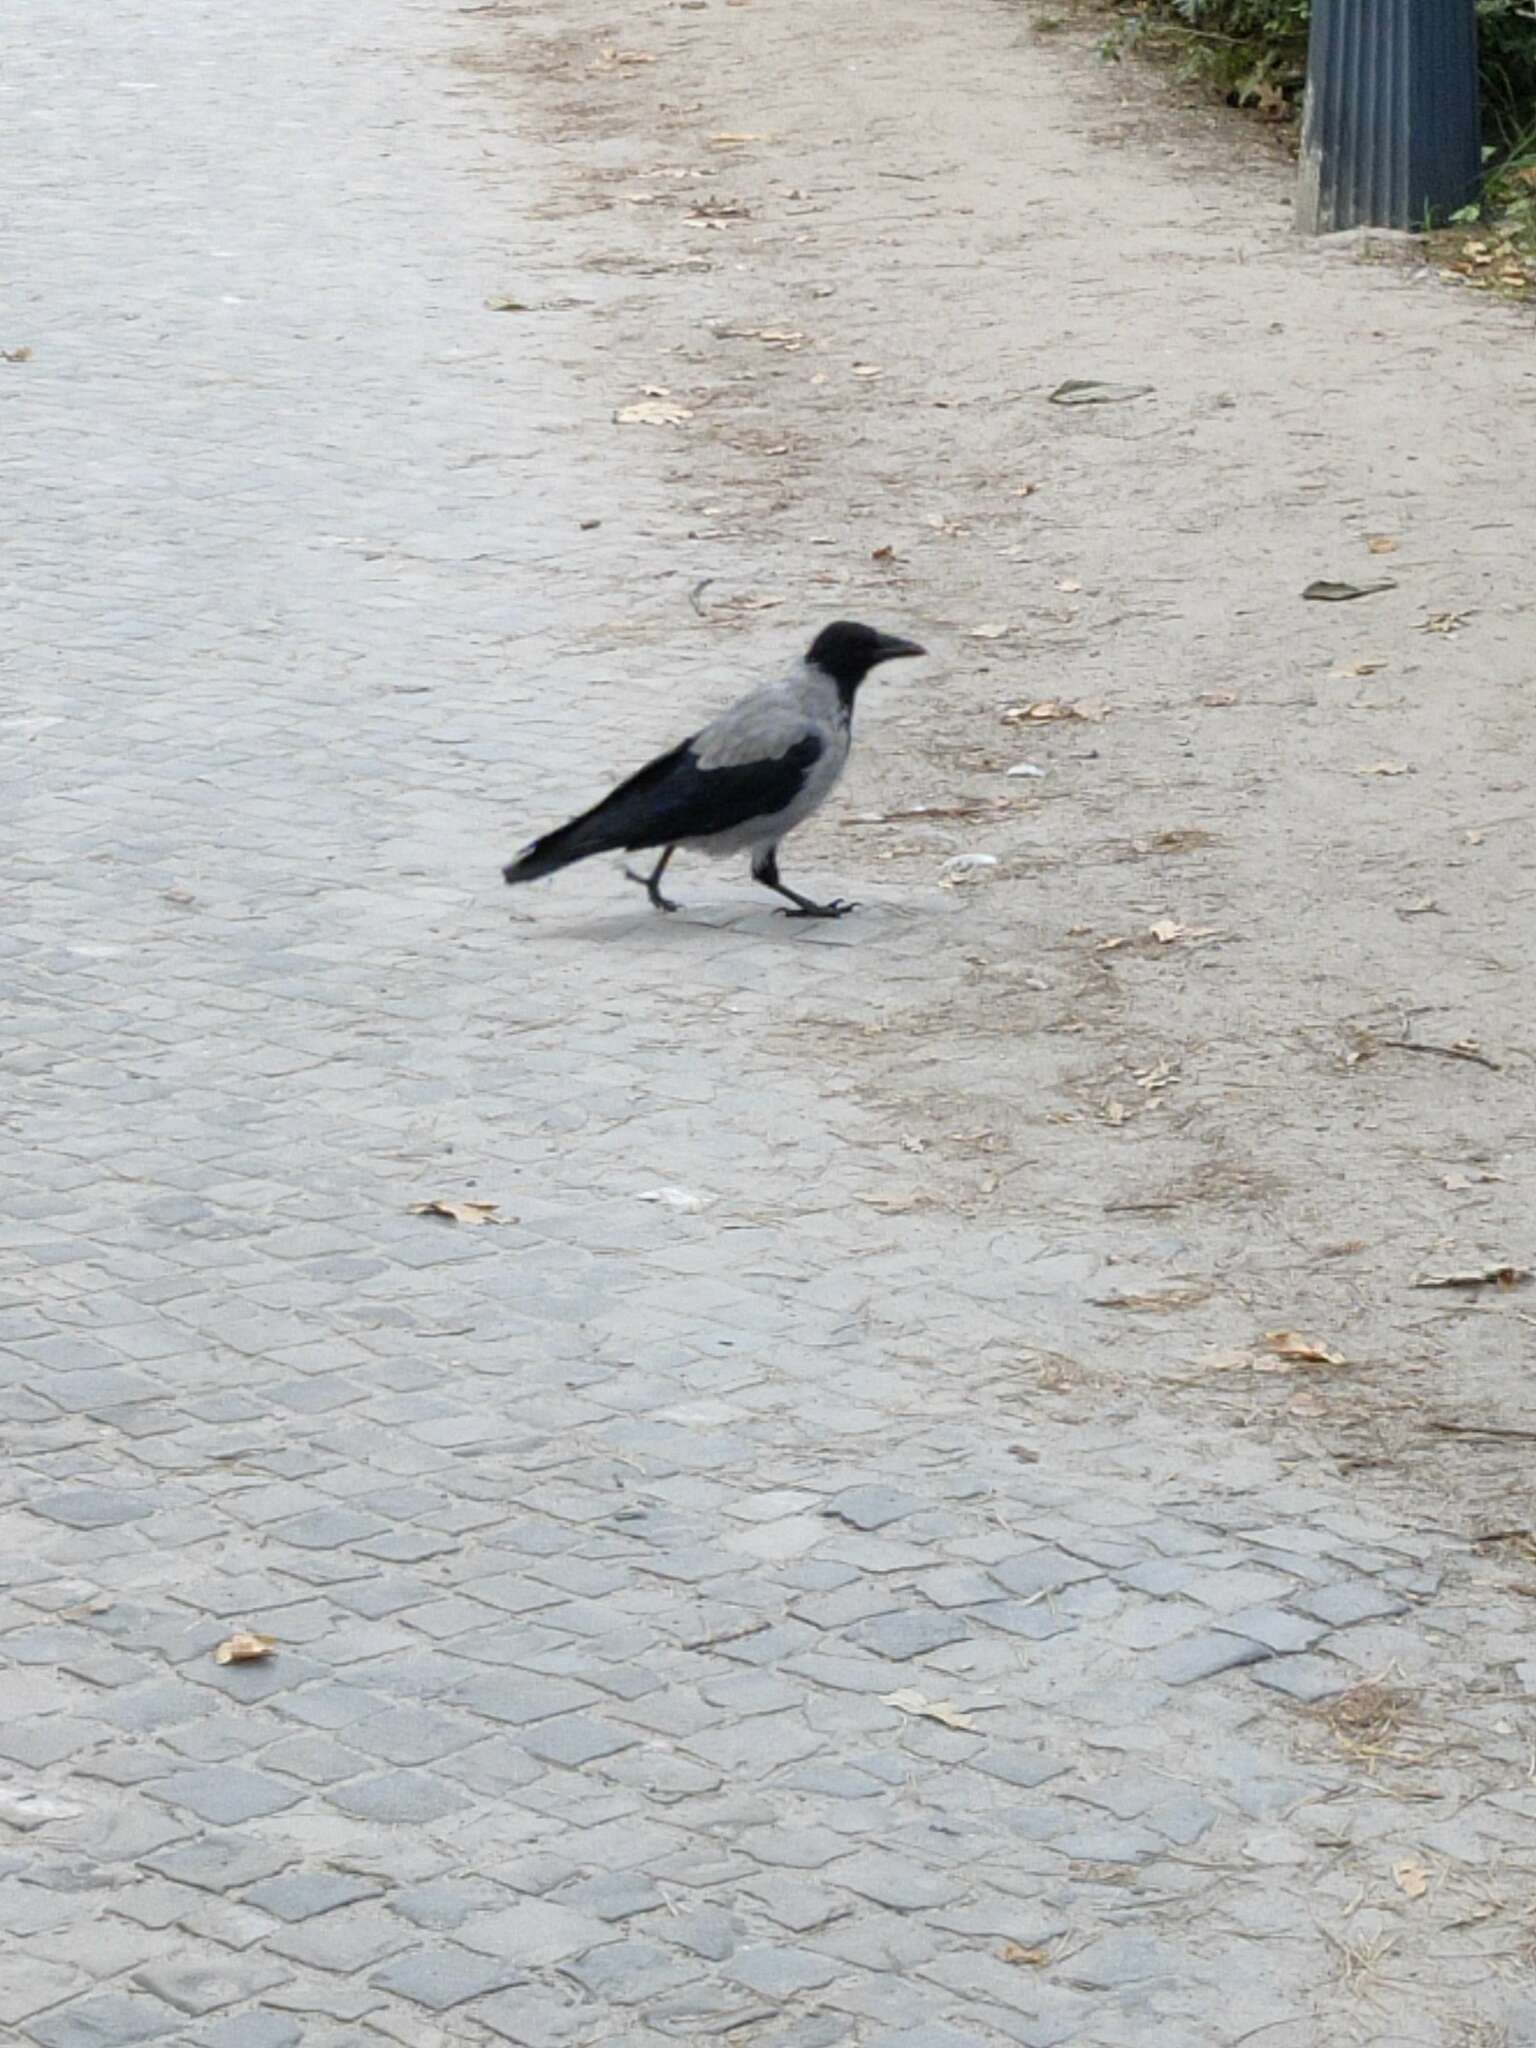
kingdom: Animalia
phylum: Chordata
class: Aves
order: Passeriformes
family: Corvidae
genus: Corvus
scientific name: Corvus cornix
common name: Hooded crow
